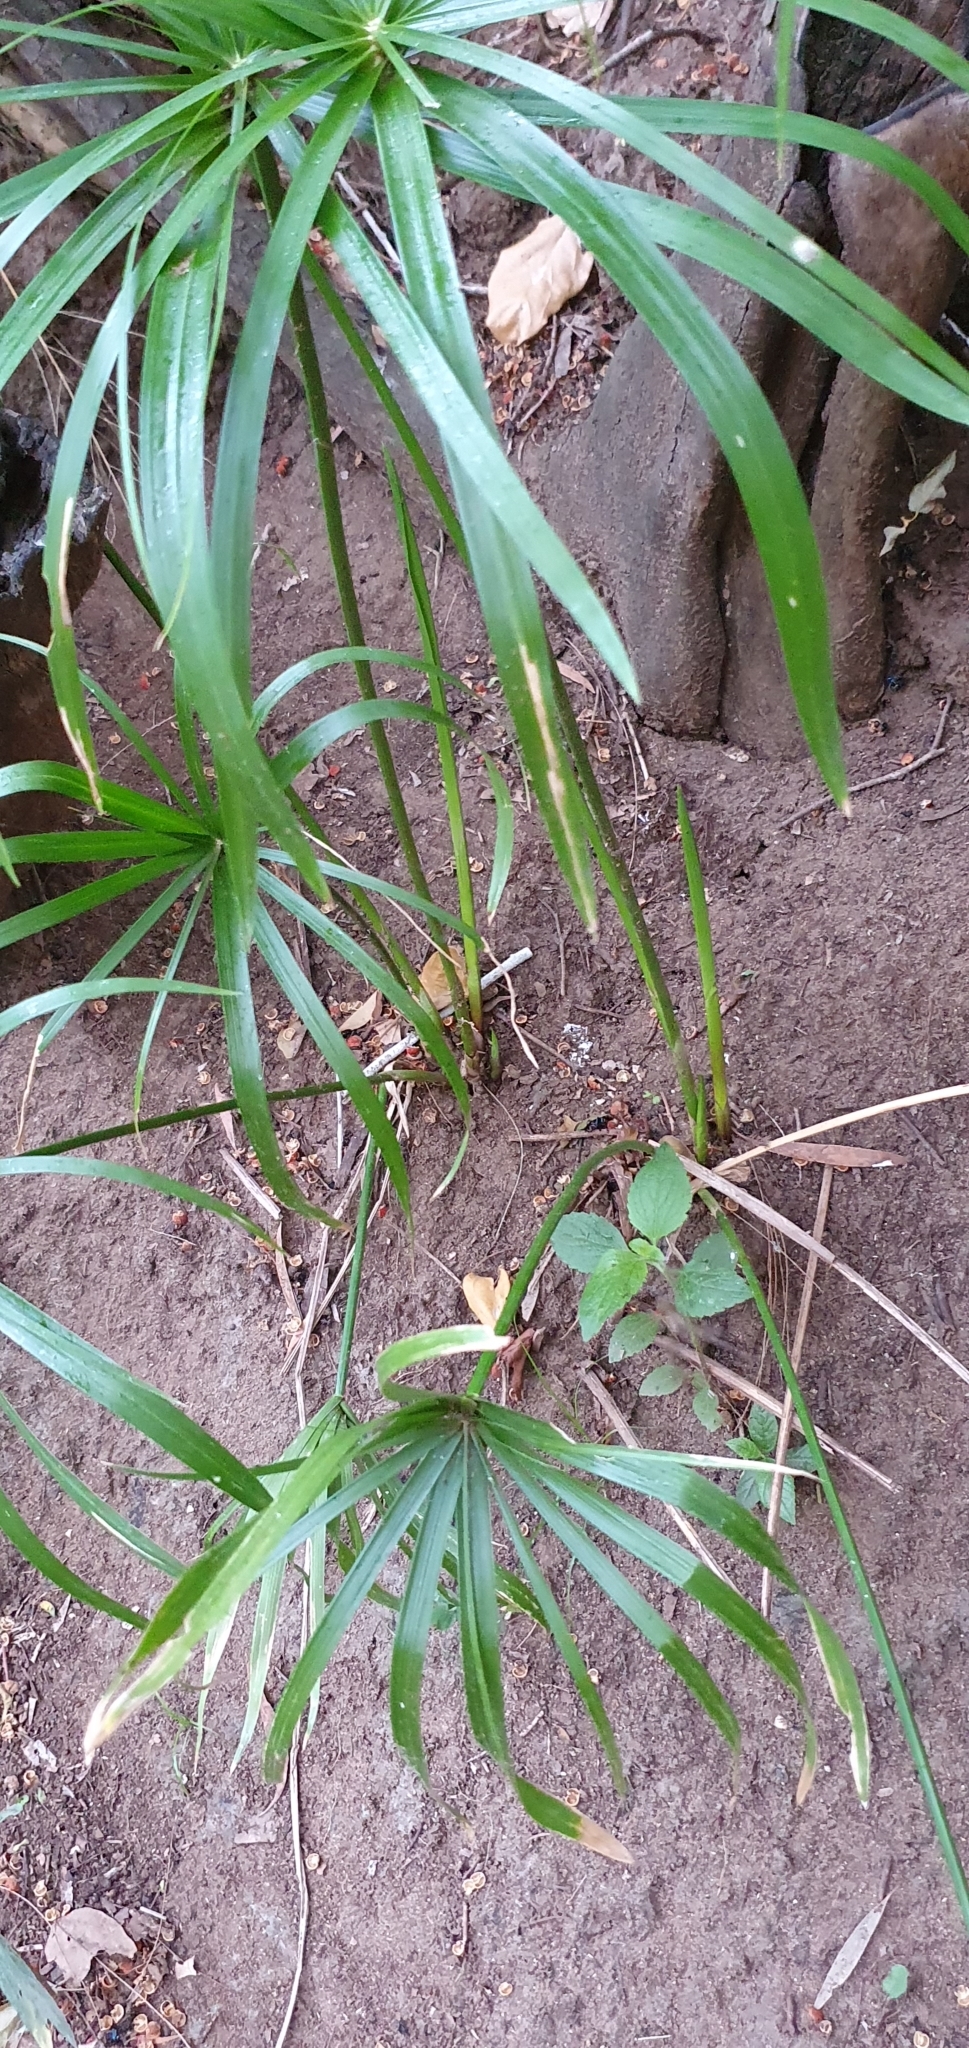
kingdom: Plantae
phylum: Tracheophyta
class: Liliopsida
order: Poales
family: Cyperaceae
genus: Cyperus
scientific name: Cyperus alternifolius
